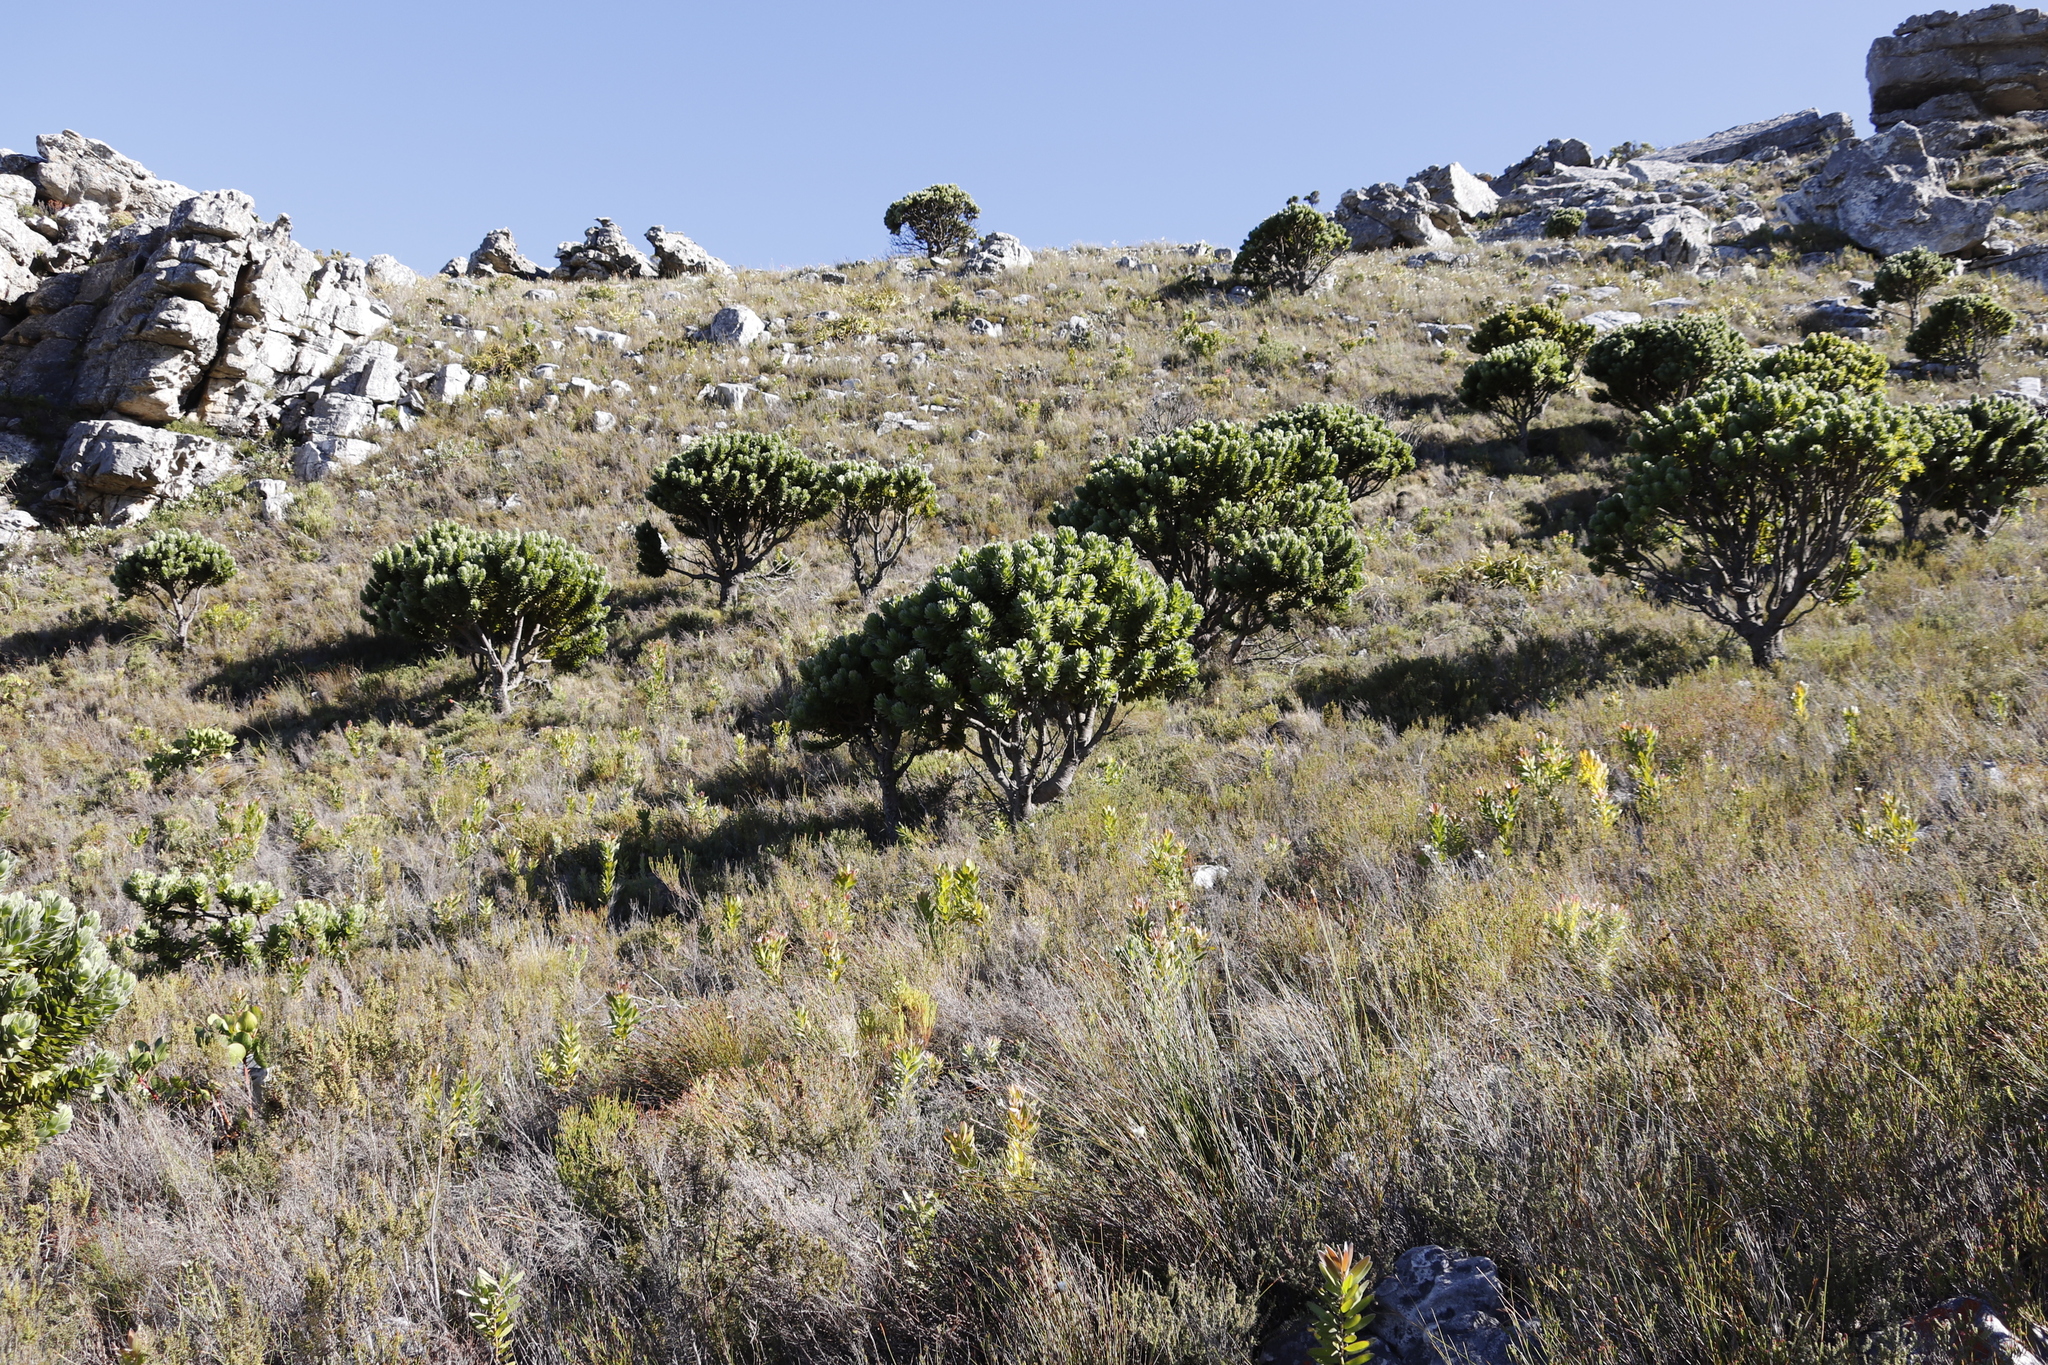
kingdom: Plantae
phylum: Tracheophyta
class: Magnoliopsida
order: Proteales
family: Proteaceae
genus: Mimetes
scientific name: Mimetes fimbriifolius
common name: Fringed bottlebrush
